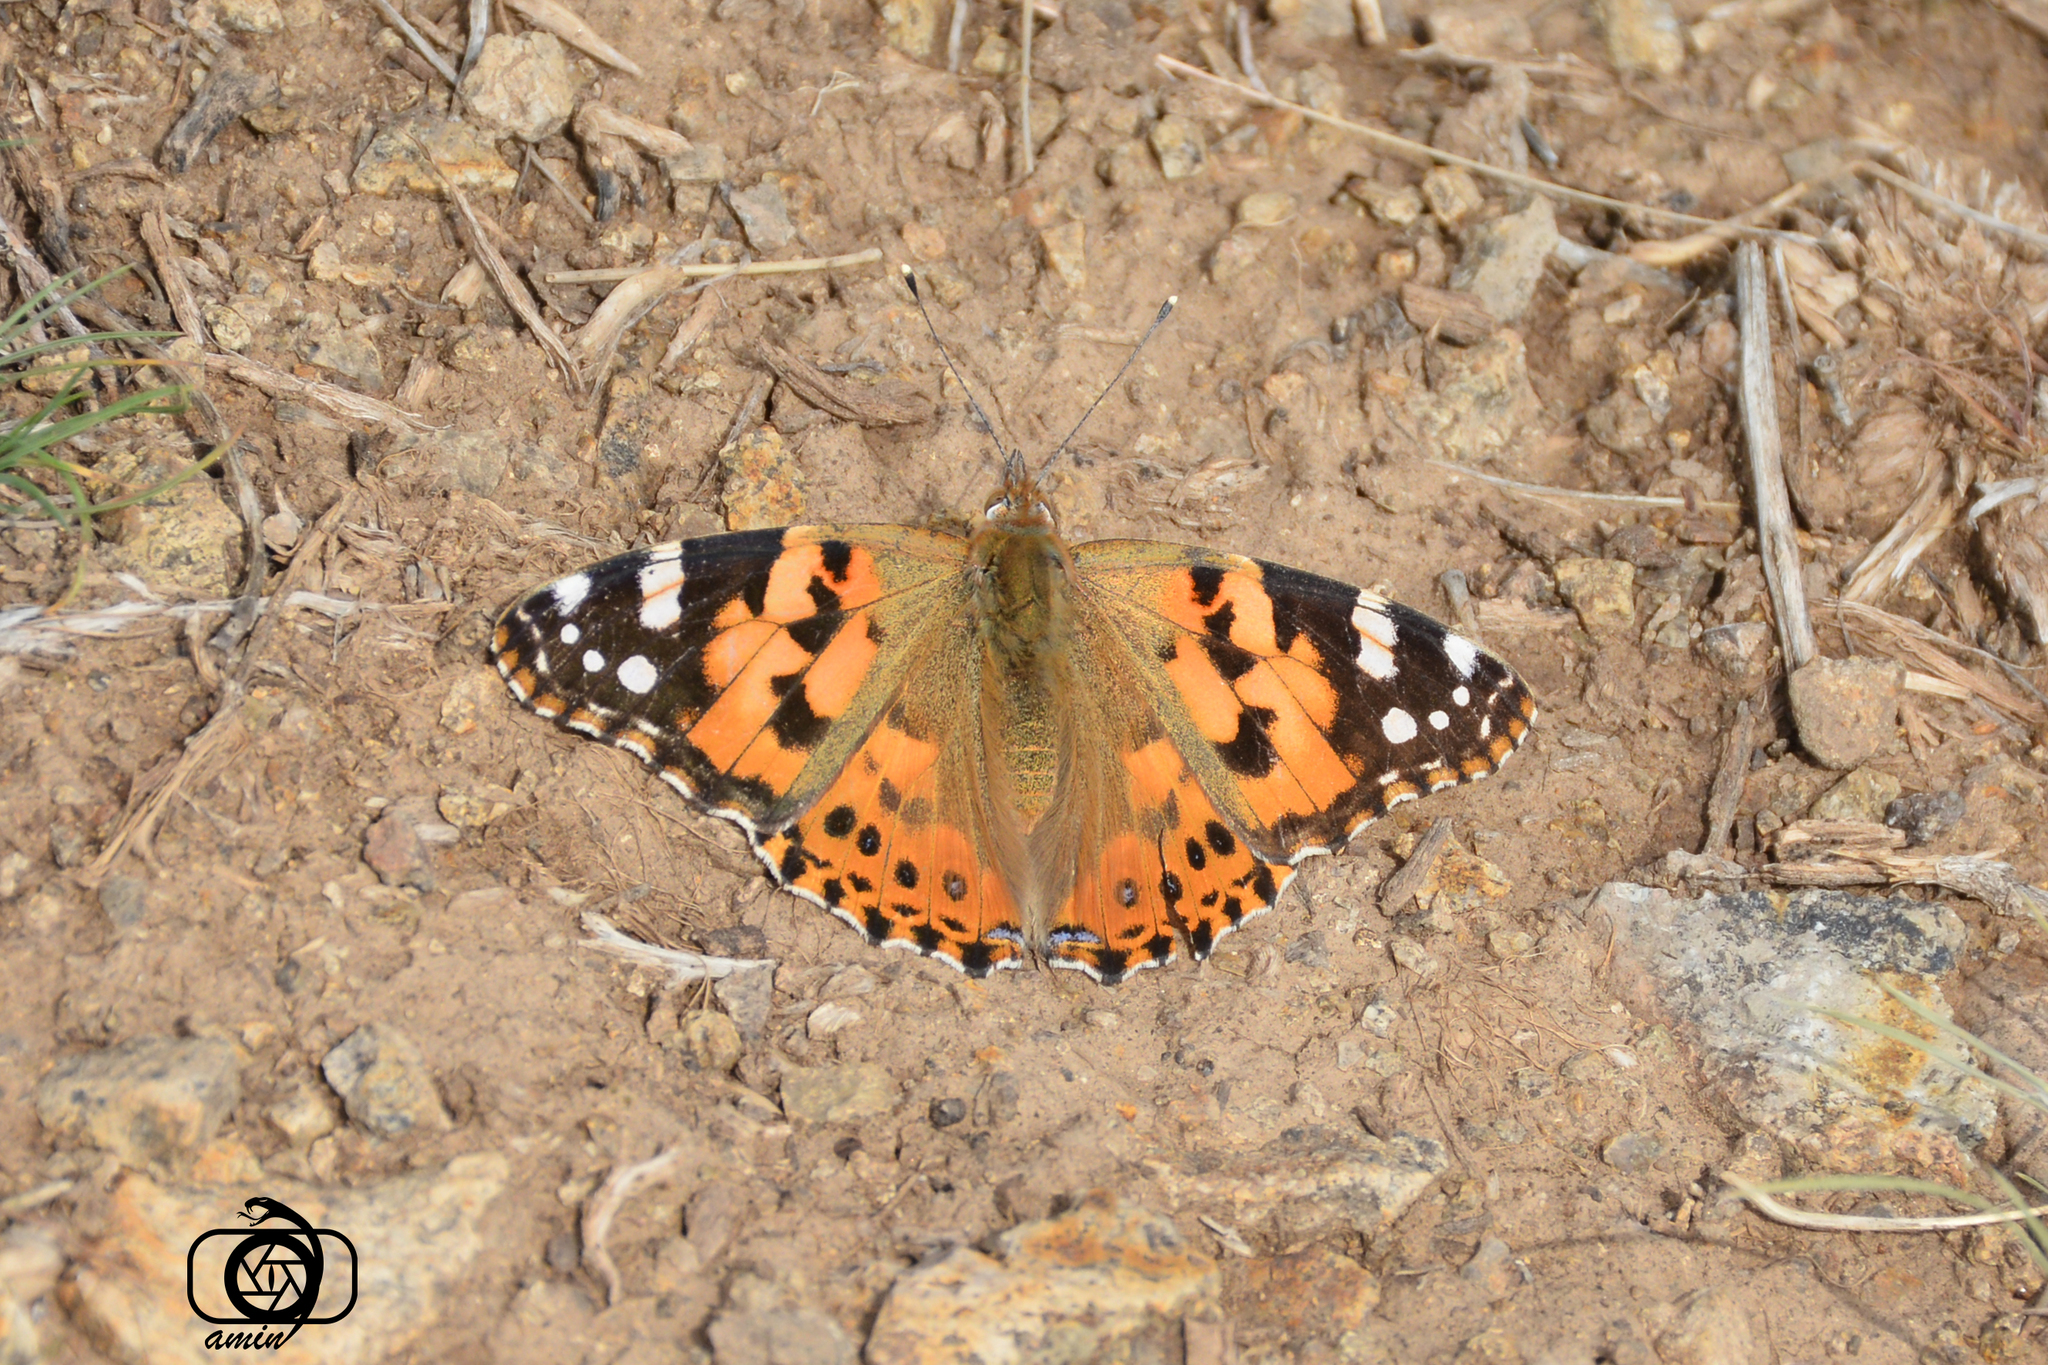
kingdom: Animalia
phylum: Arthropoda
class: Insecta
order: Lepidoptera
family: Nymphalidae
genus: Vanessa
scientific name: Vanessa cardui
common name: Painted lady
